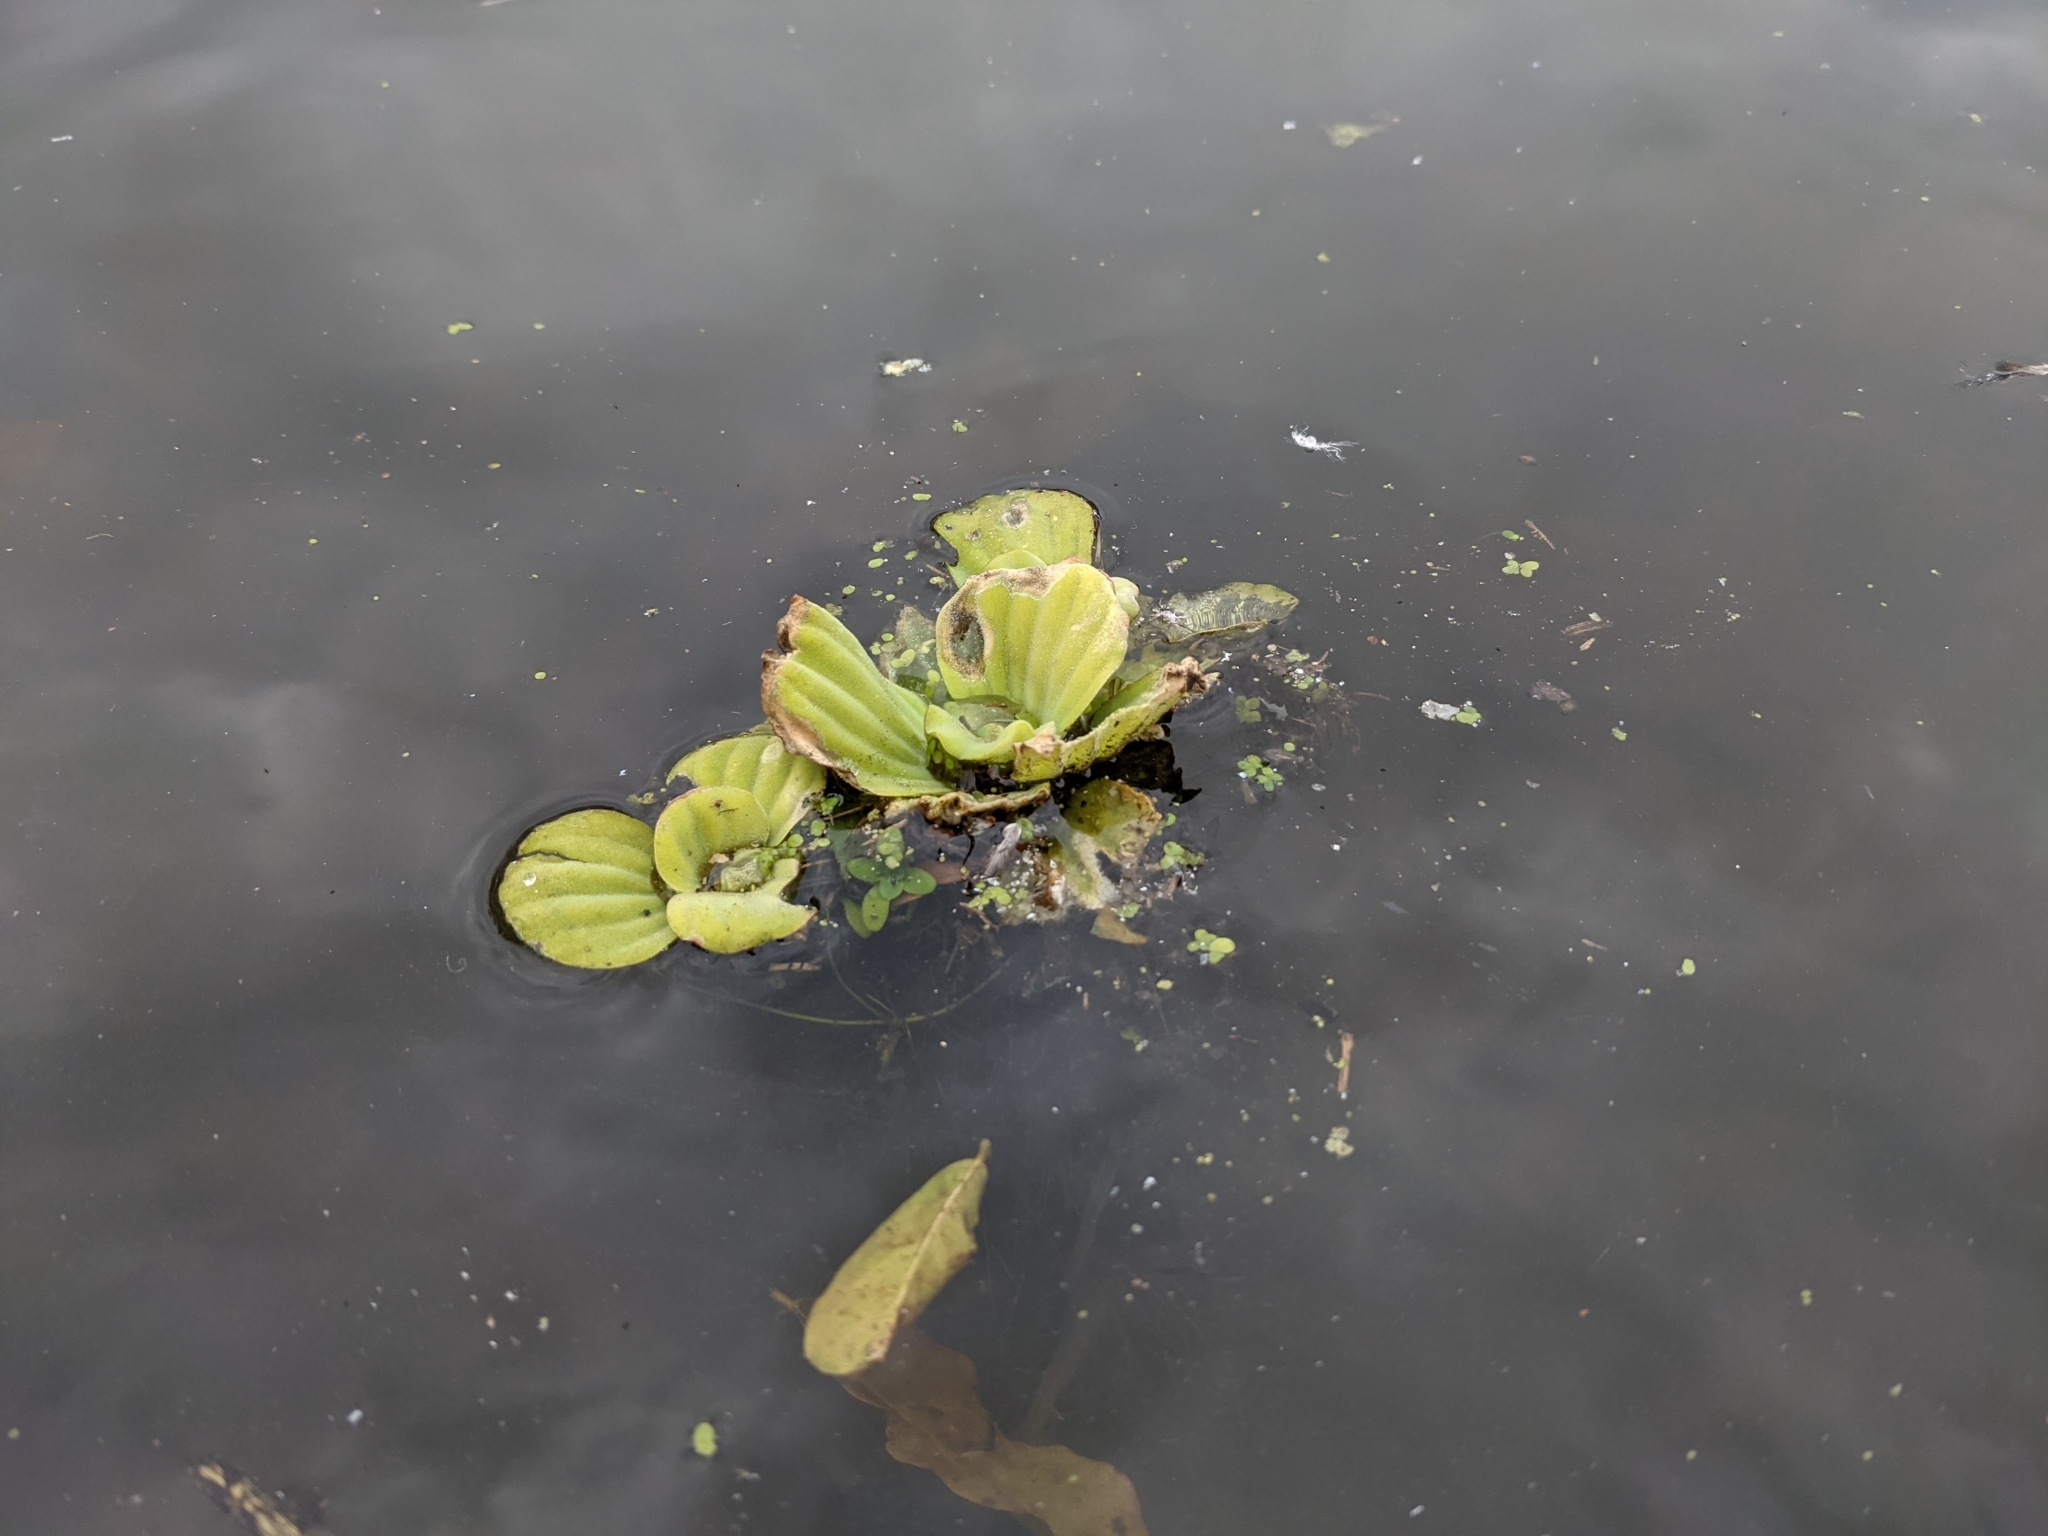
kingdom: Plantae
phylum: Tracheophyta
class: Liliopsida
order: Alismatales
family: Araceae
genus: Pistia
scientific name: Pistia stratiotes
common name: Water lettuce
